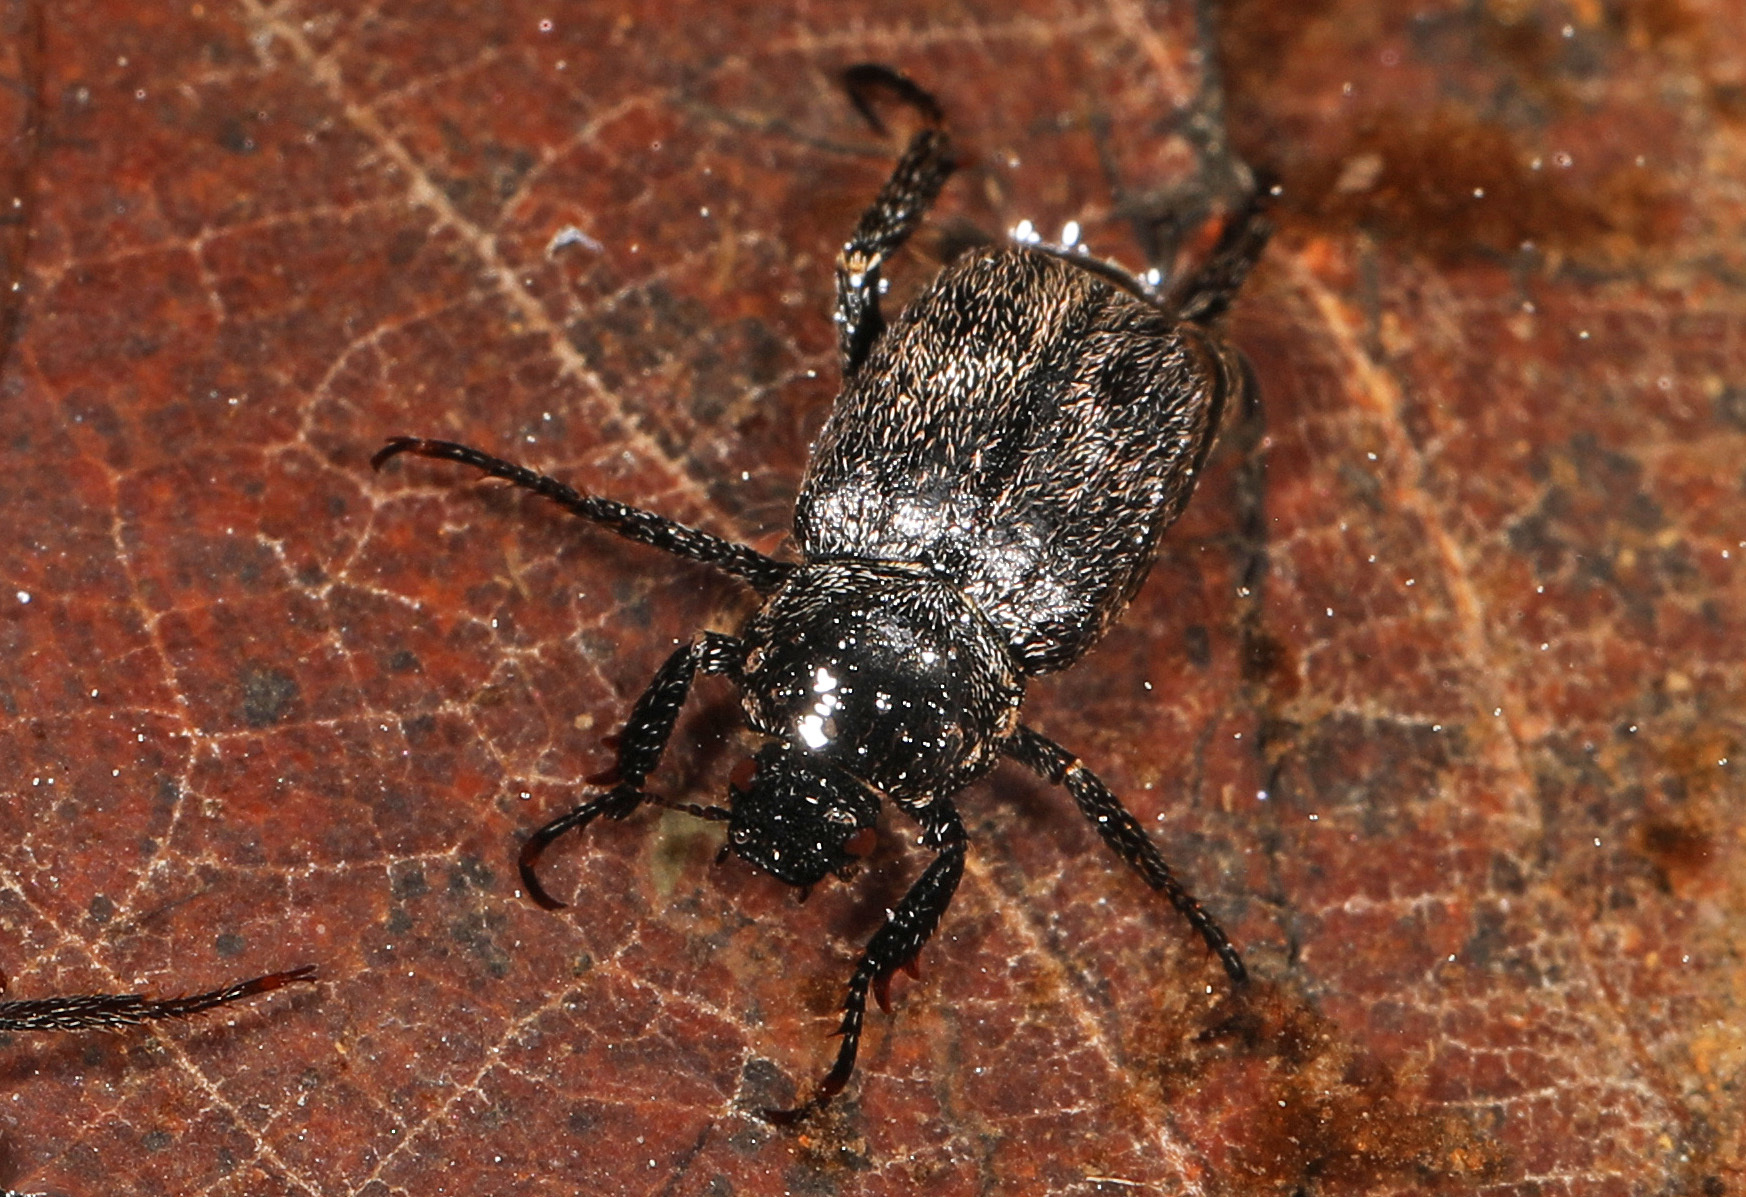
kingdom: Animalia
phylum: Arthropoda
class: Insecta
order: Coleoptera
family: Scarabaeidae
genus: Hoplia
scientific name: Hoplia trivialis
